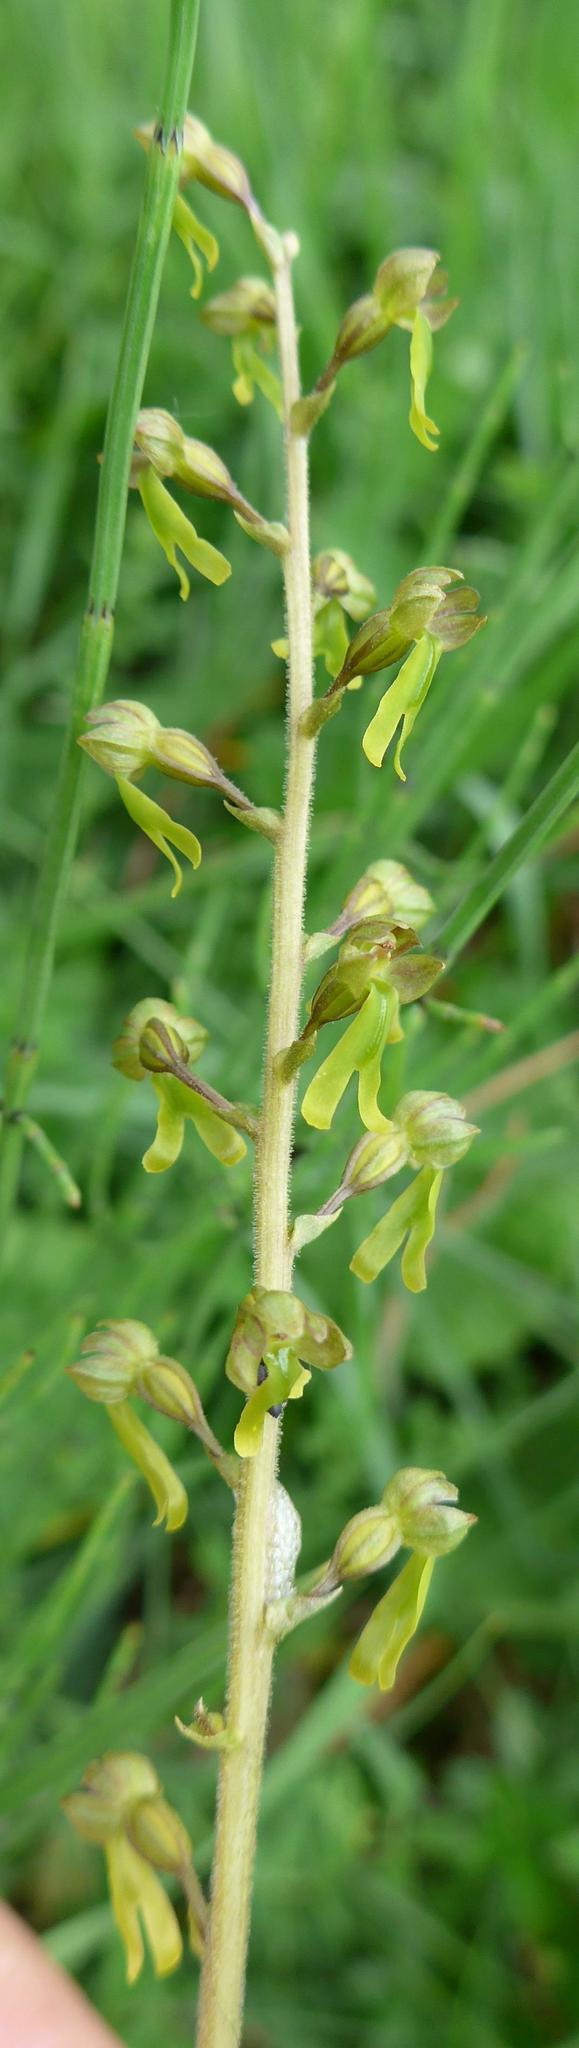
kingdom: Plantae
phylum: Tracheophyta
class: Liliopsida
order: Asparagales
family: Orchidaceae
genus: Neottia
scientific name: Neottia ovata
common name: Common twayblade
